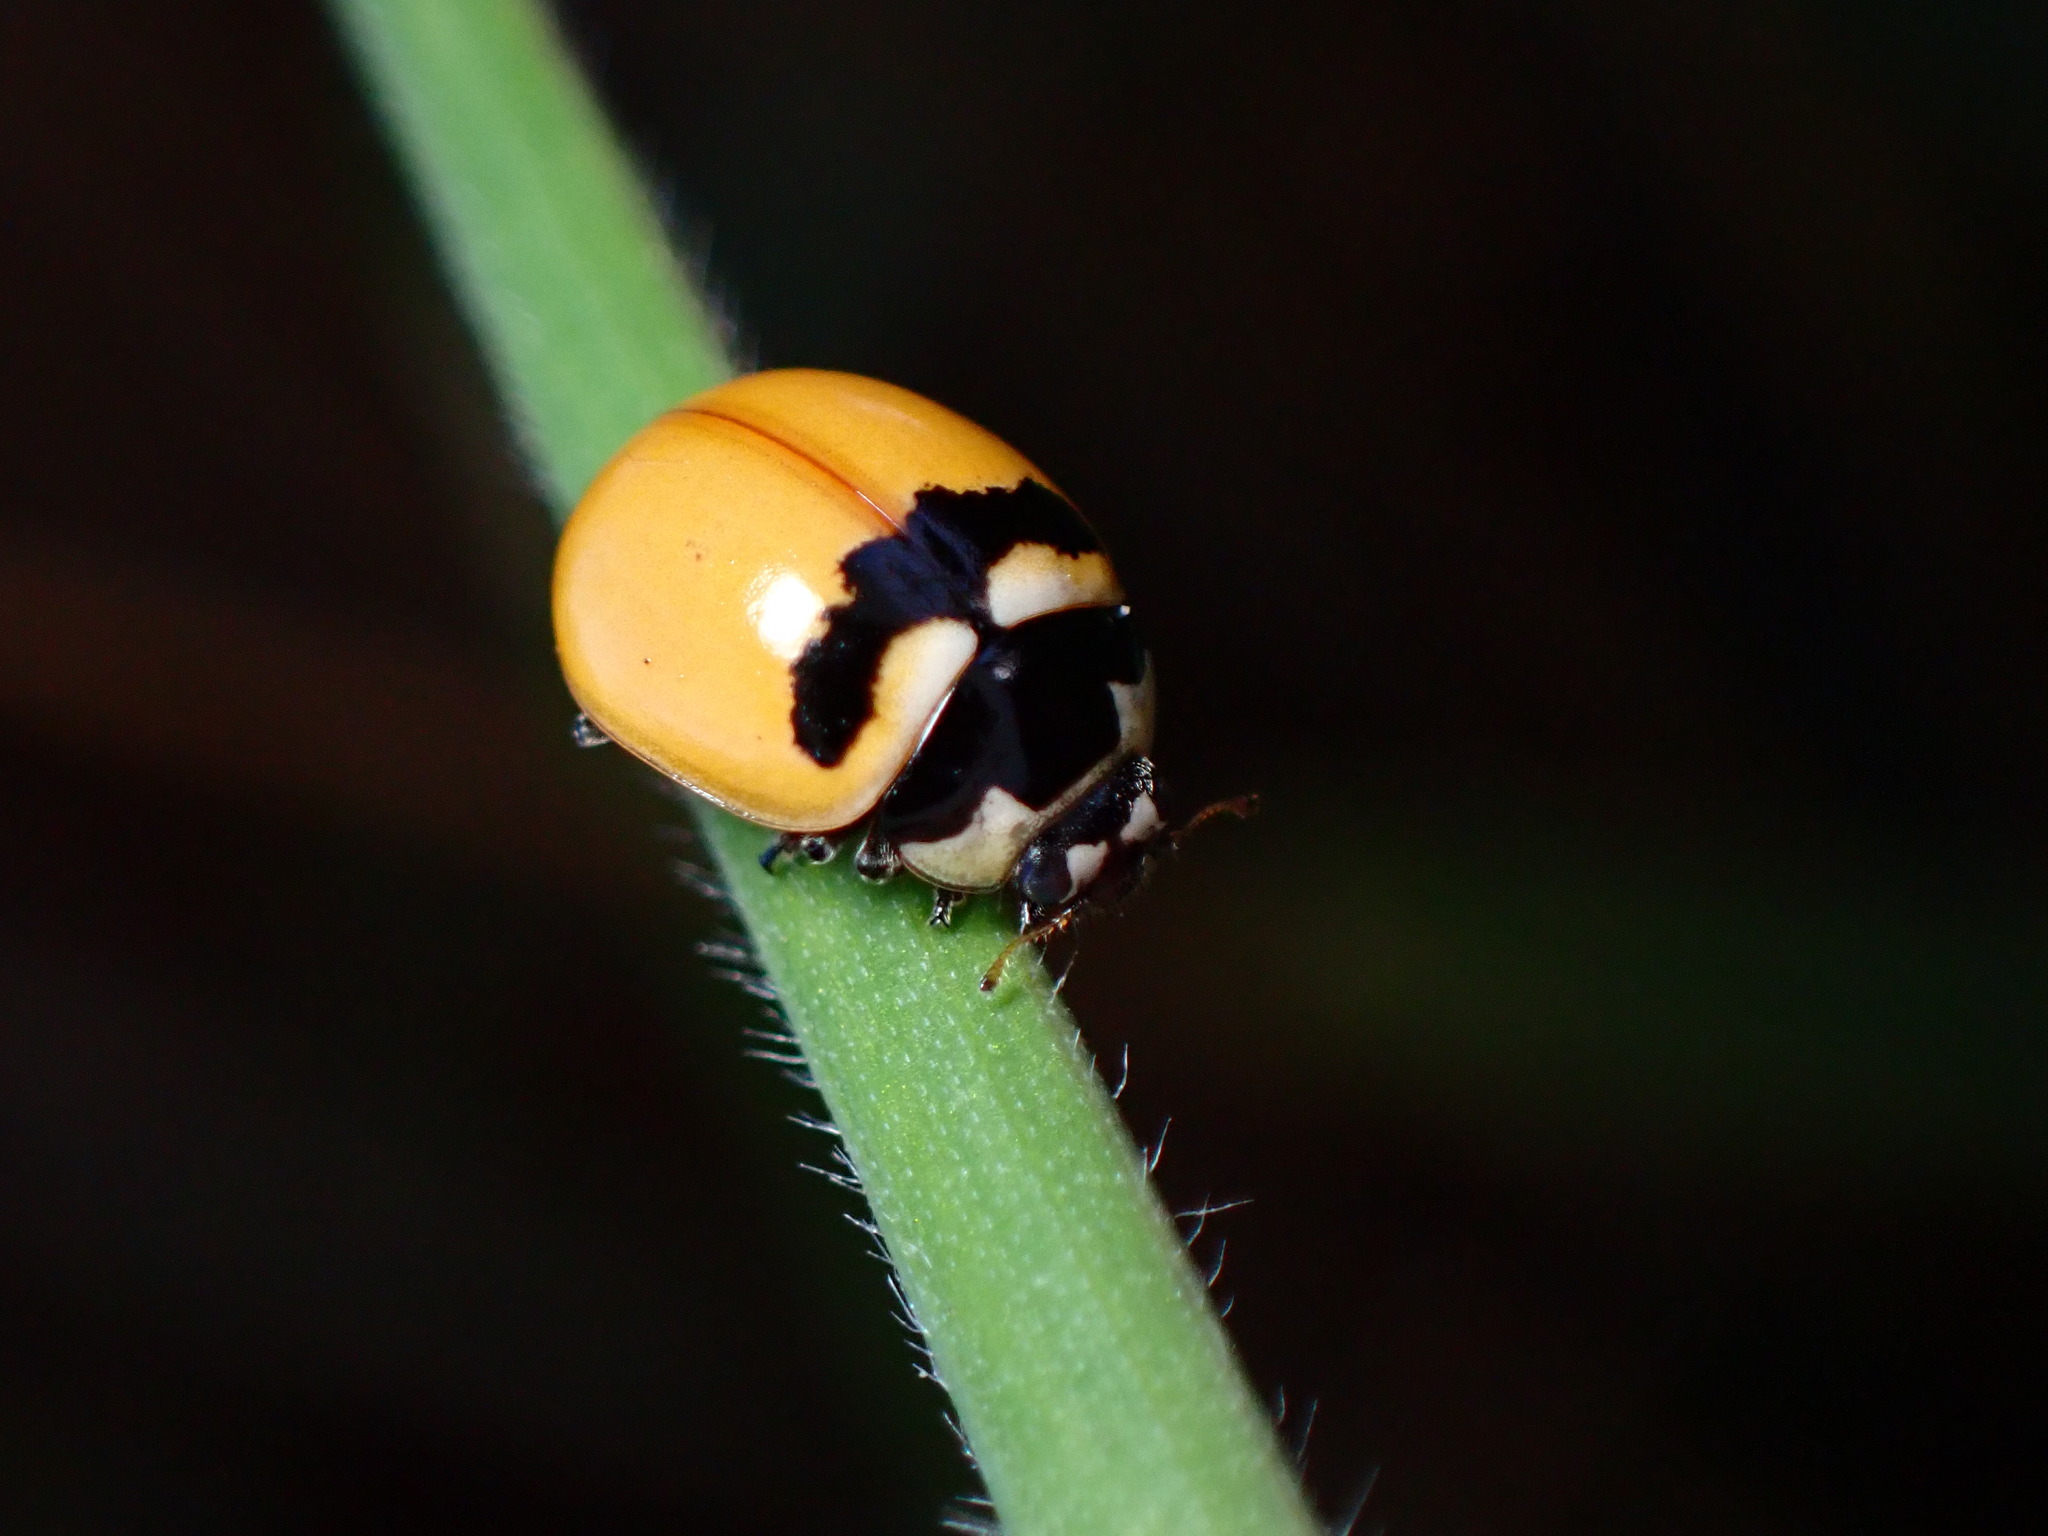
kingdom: Animalia
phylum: Arthropoda
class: Insecta
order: Coleoptera
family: Coccinellidae
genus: Coccinella
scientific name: Coccinella trifasciata
